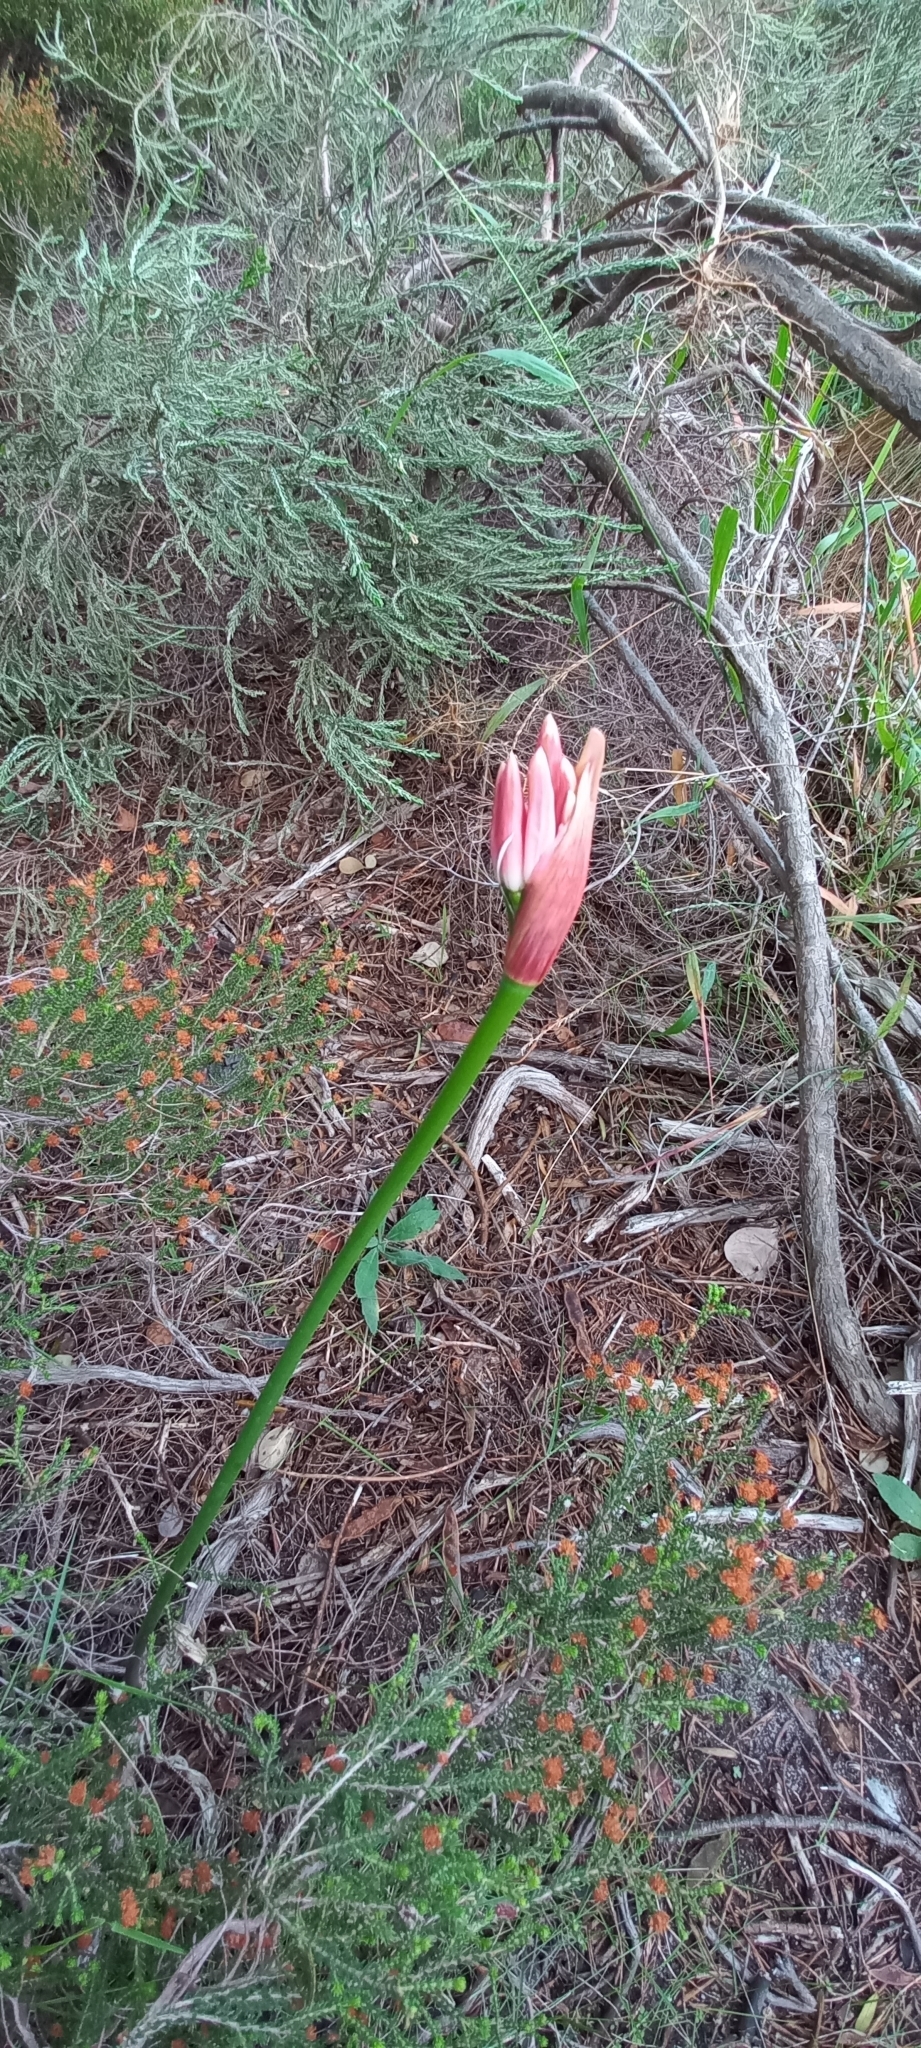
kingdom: Plantae
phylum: Tracheophyta
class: Liliopsida
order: Asparagales
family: Amaryllidaceae
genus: Nerine
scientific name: Nerine sarniensis
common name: Guernsey-lily
